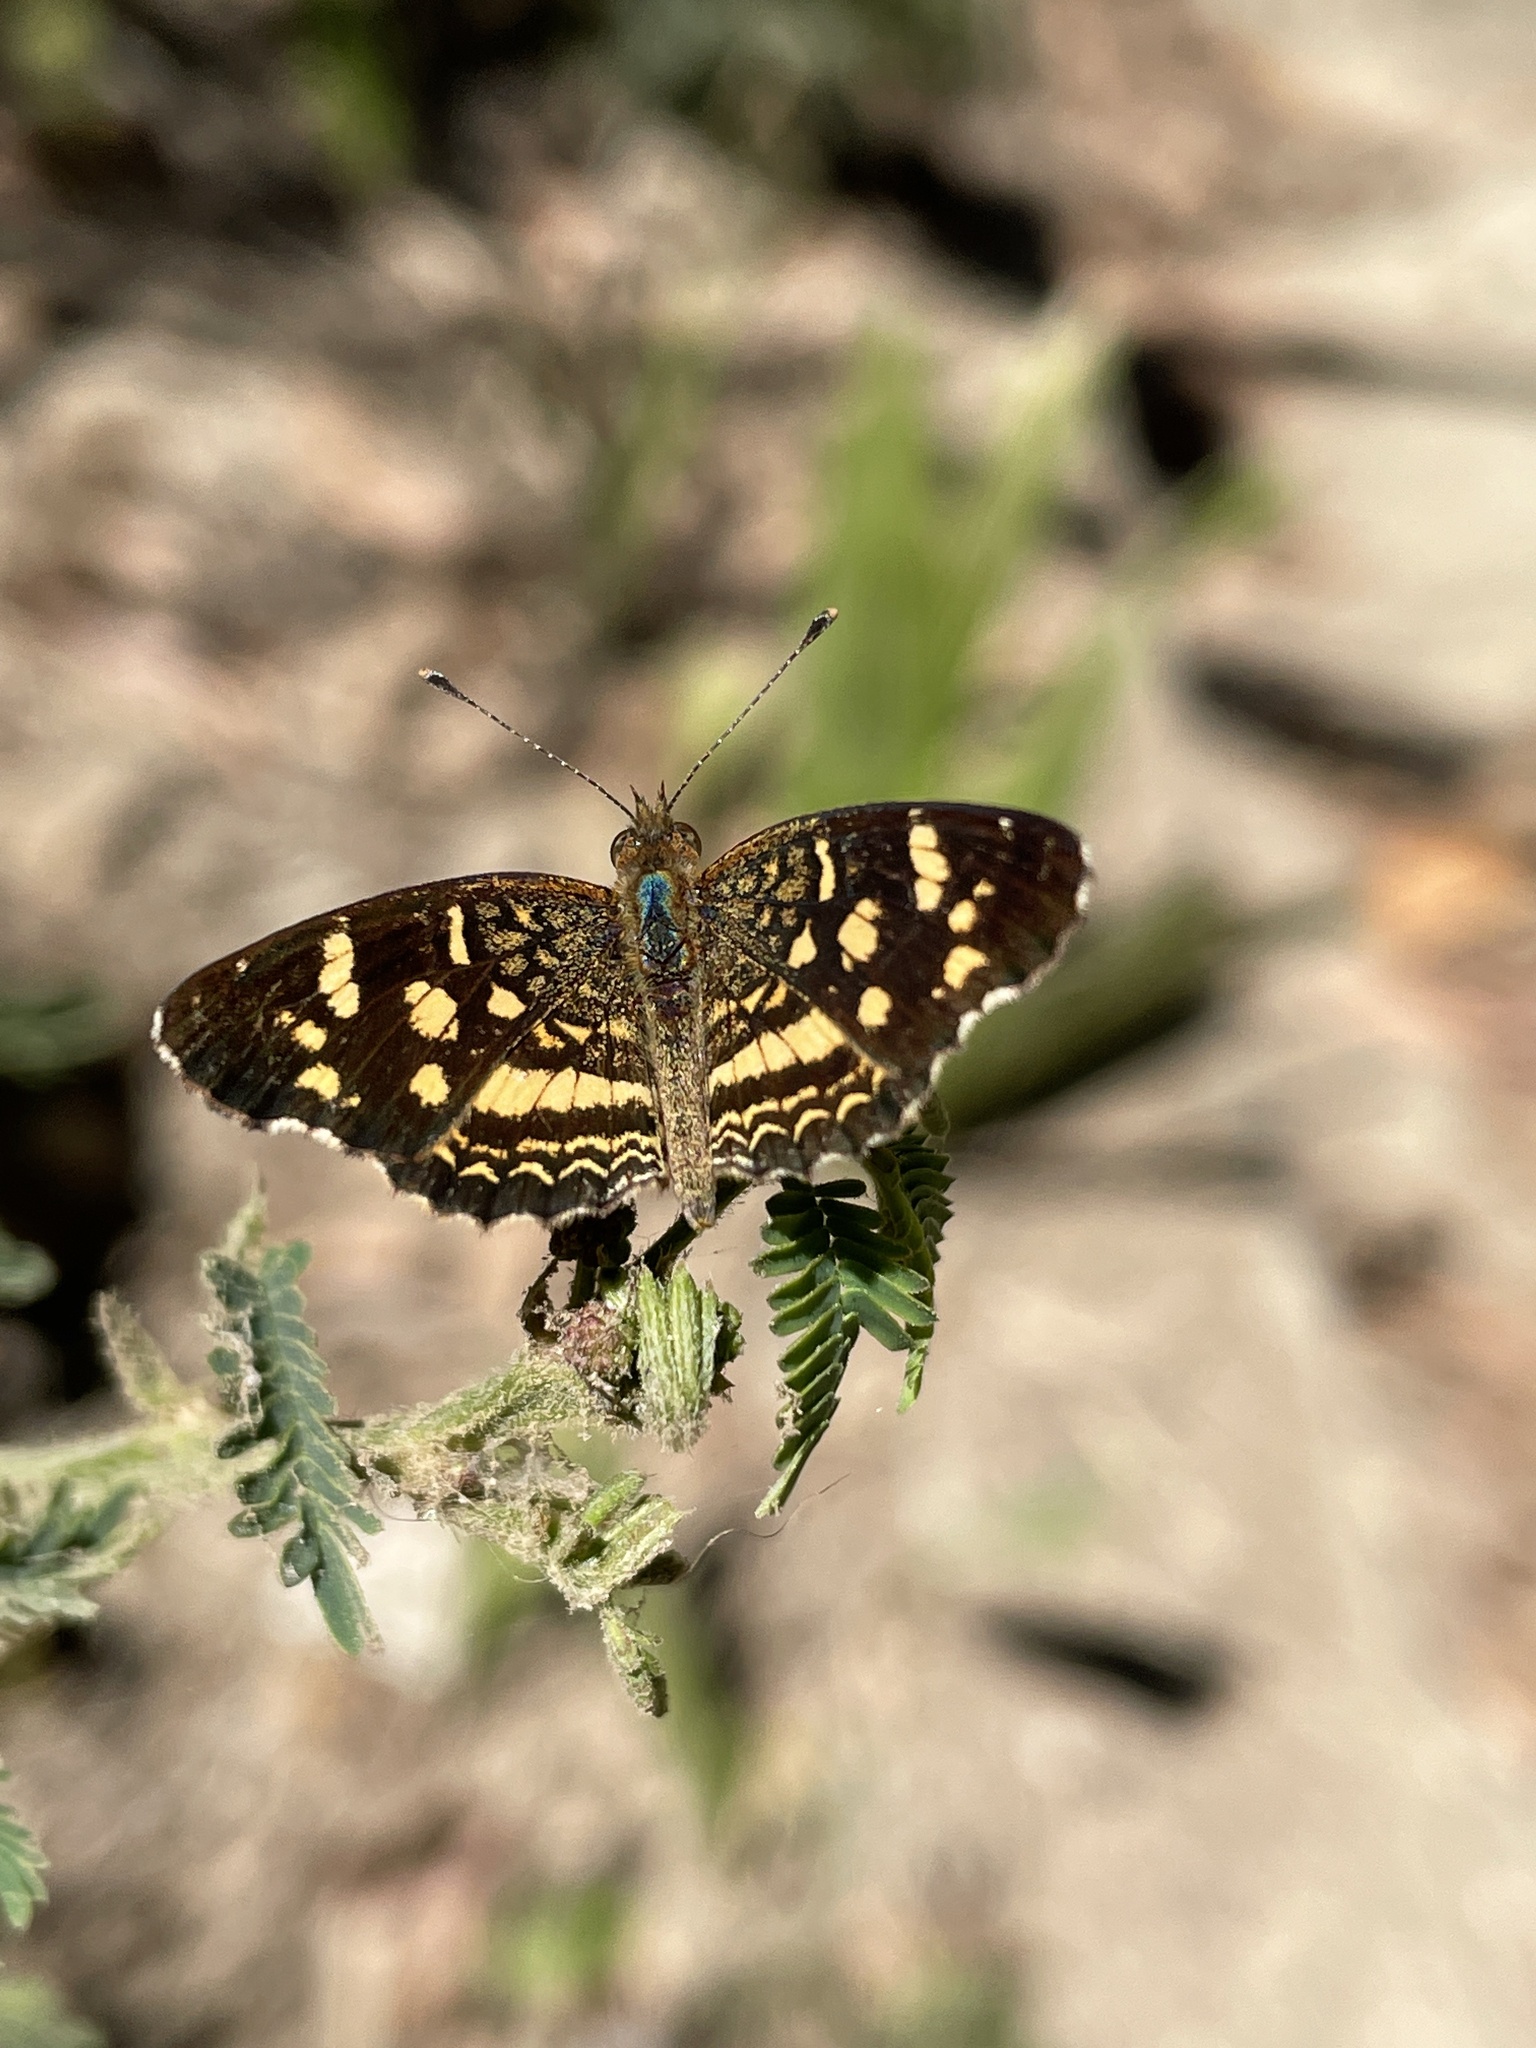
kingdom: Animalia
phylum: Arthropoda
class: Insecta
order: Lepidoptera
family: Nymphalidae
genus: Anthanassa
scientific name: Anthanassa tulcis
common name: Pale-banded crescent
